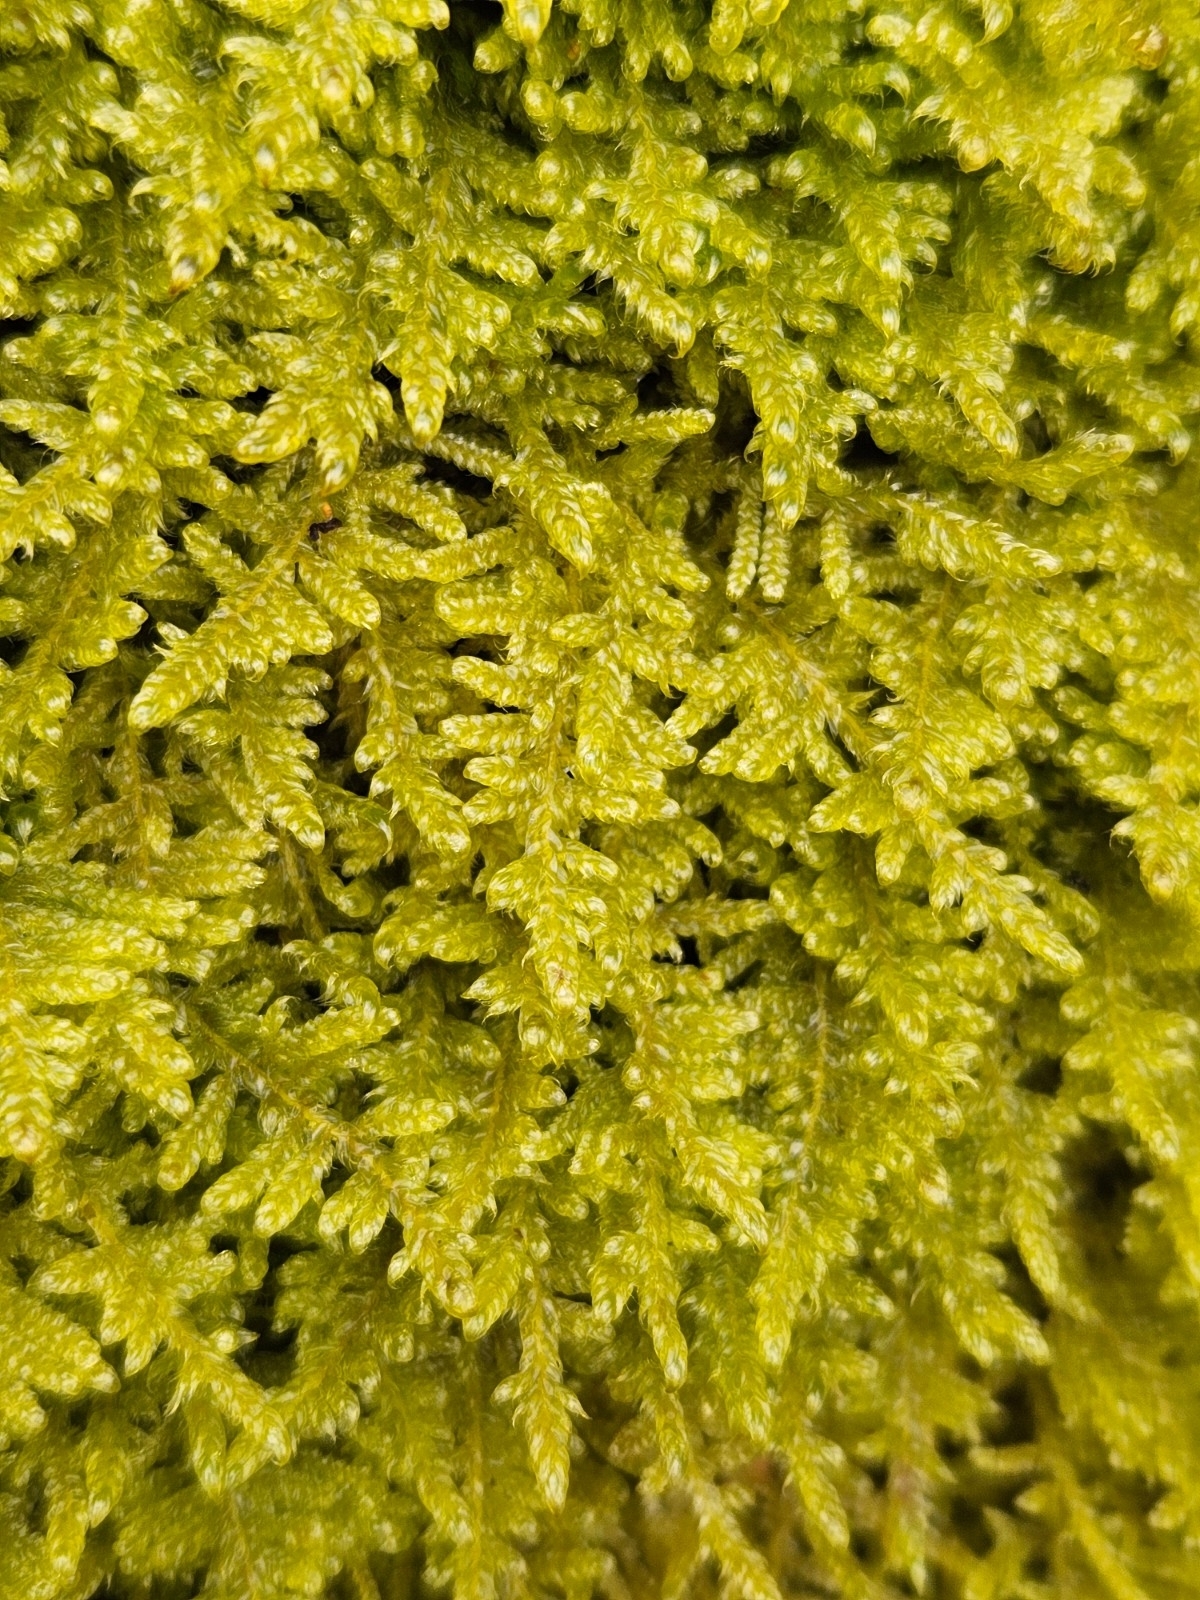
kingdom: Plantae
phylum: Bryophyta
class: Bryopsida
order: Hypnales
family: Hypnaceae
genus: Hypnum
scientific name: Hypnum jutlandicum
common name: Heath plait-moss
